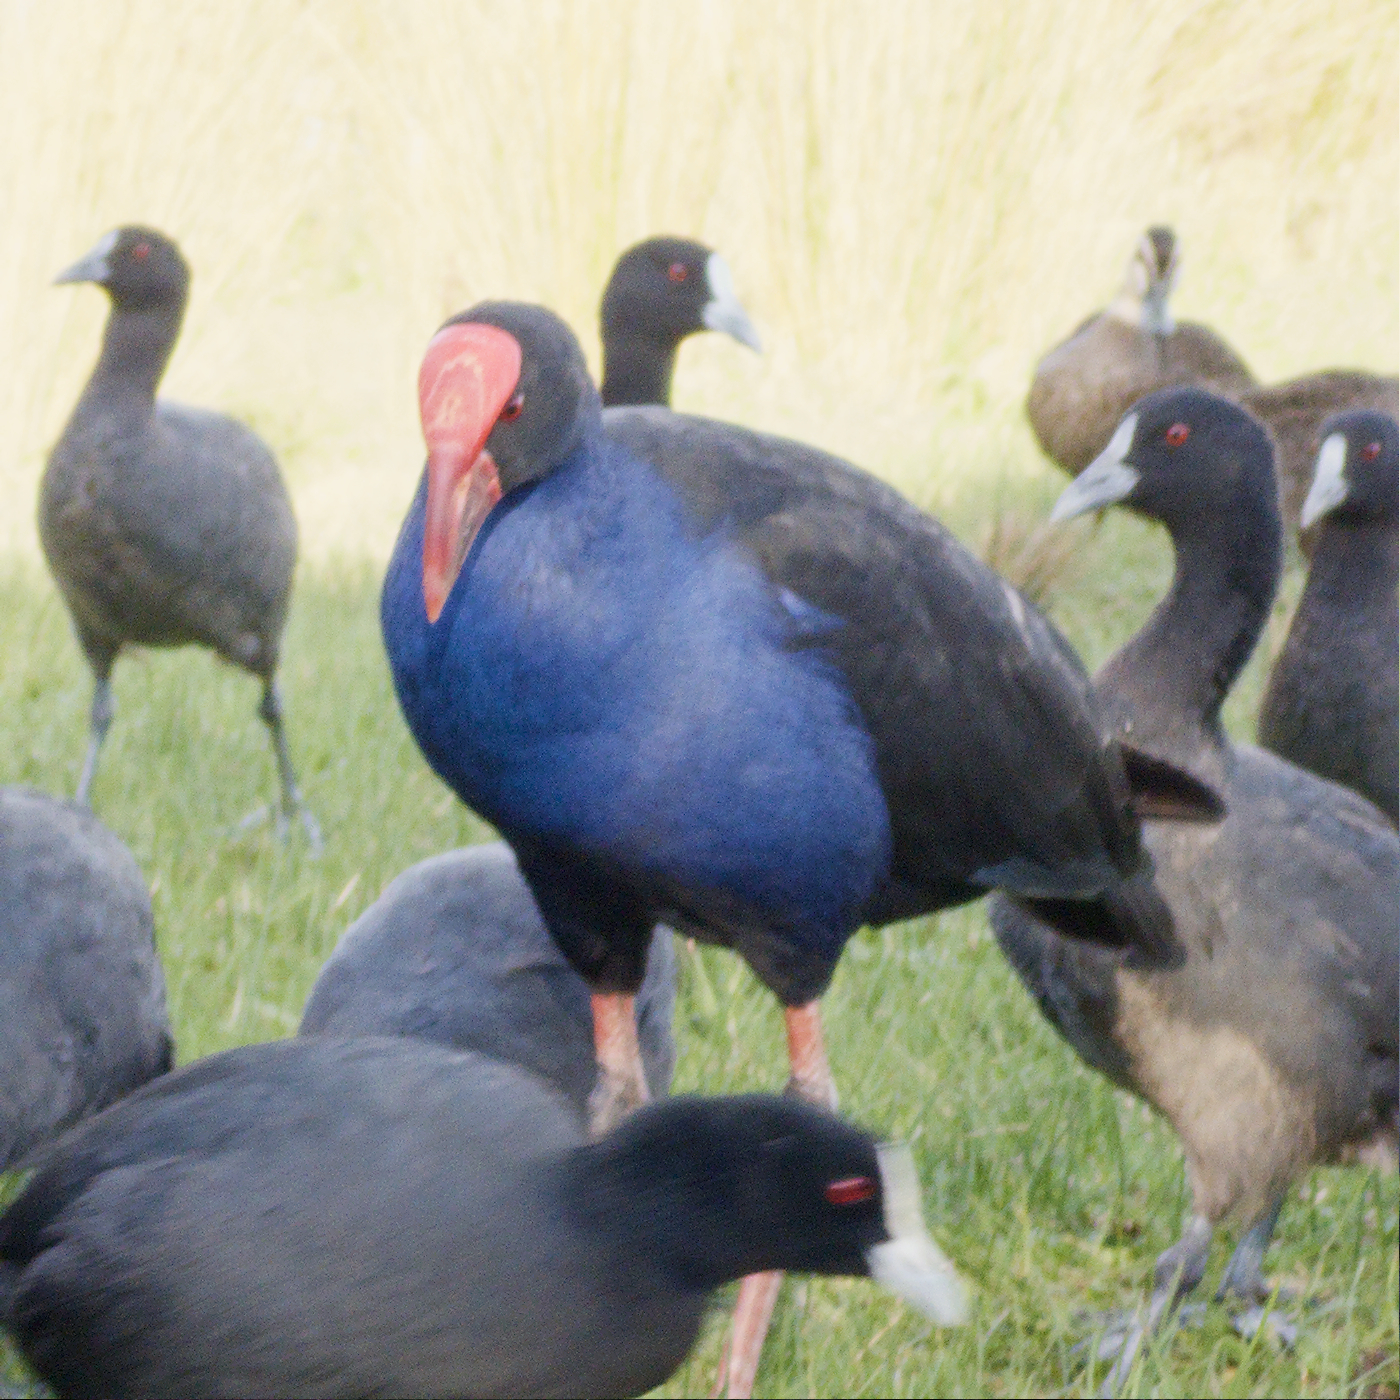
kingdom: Animalia
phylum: Chordata
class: Aves
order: Gruiformes
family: Rallidae
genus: Porphyrio
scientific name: Porphyrio melanotus
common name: Australasian swamphen
